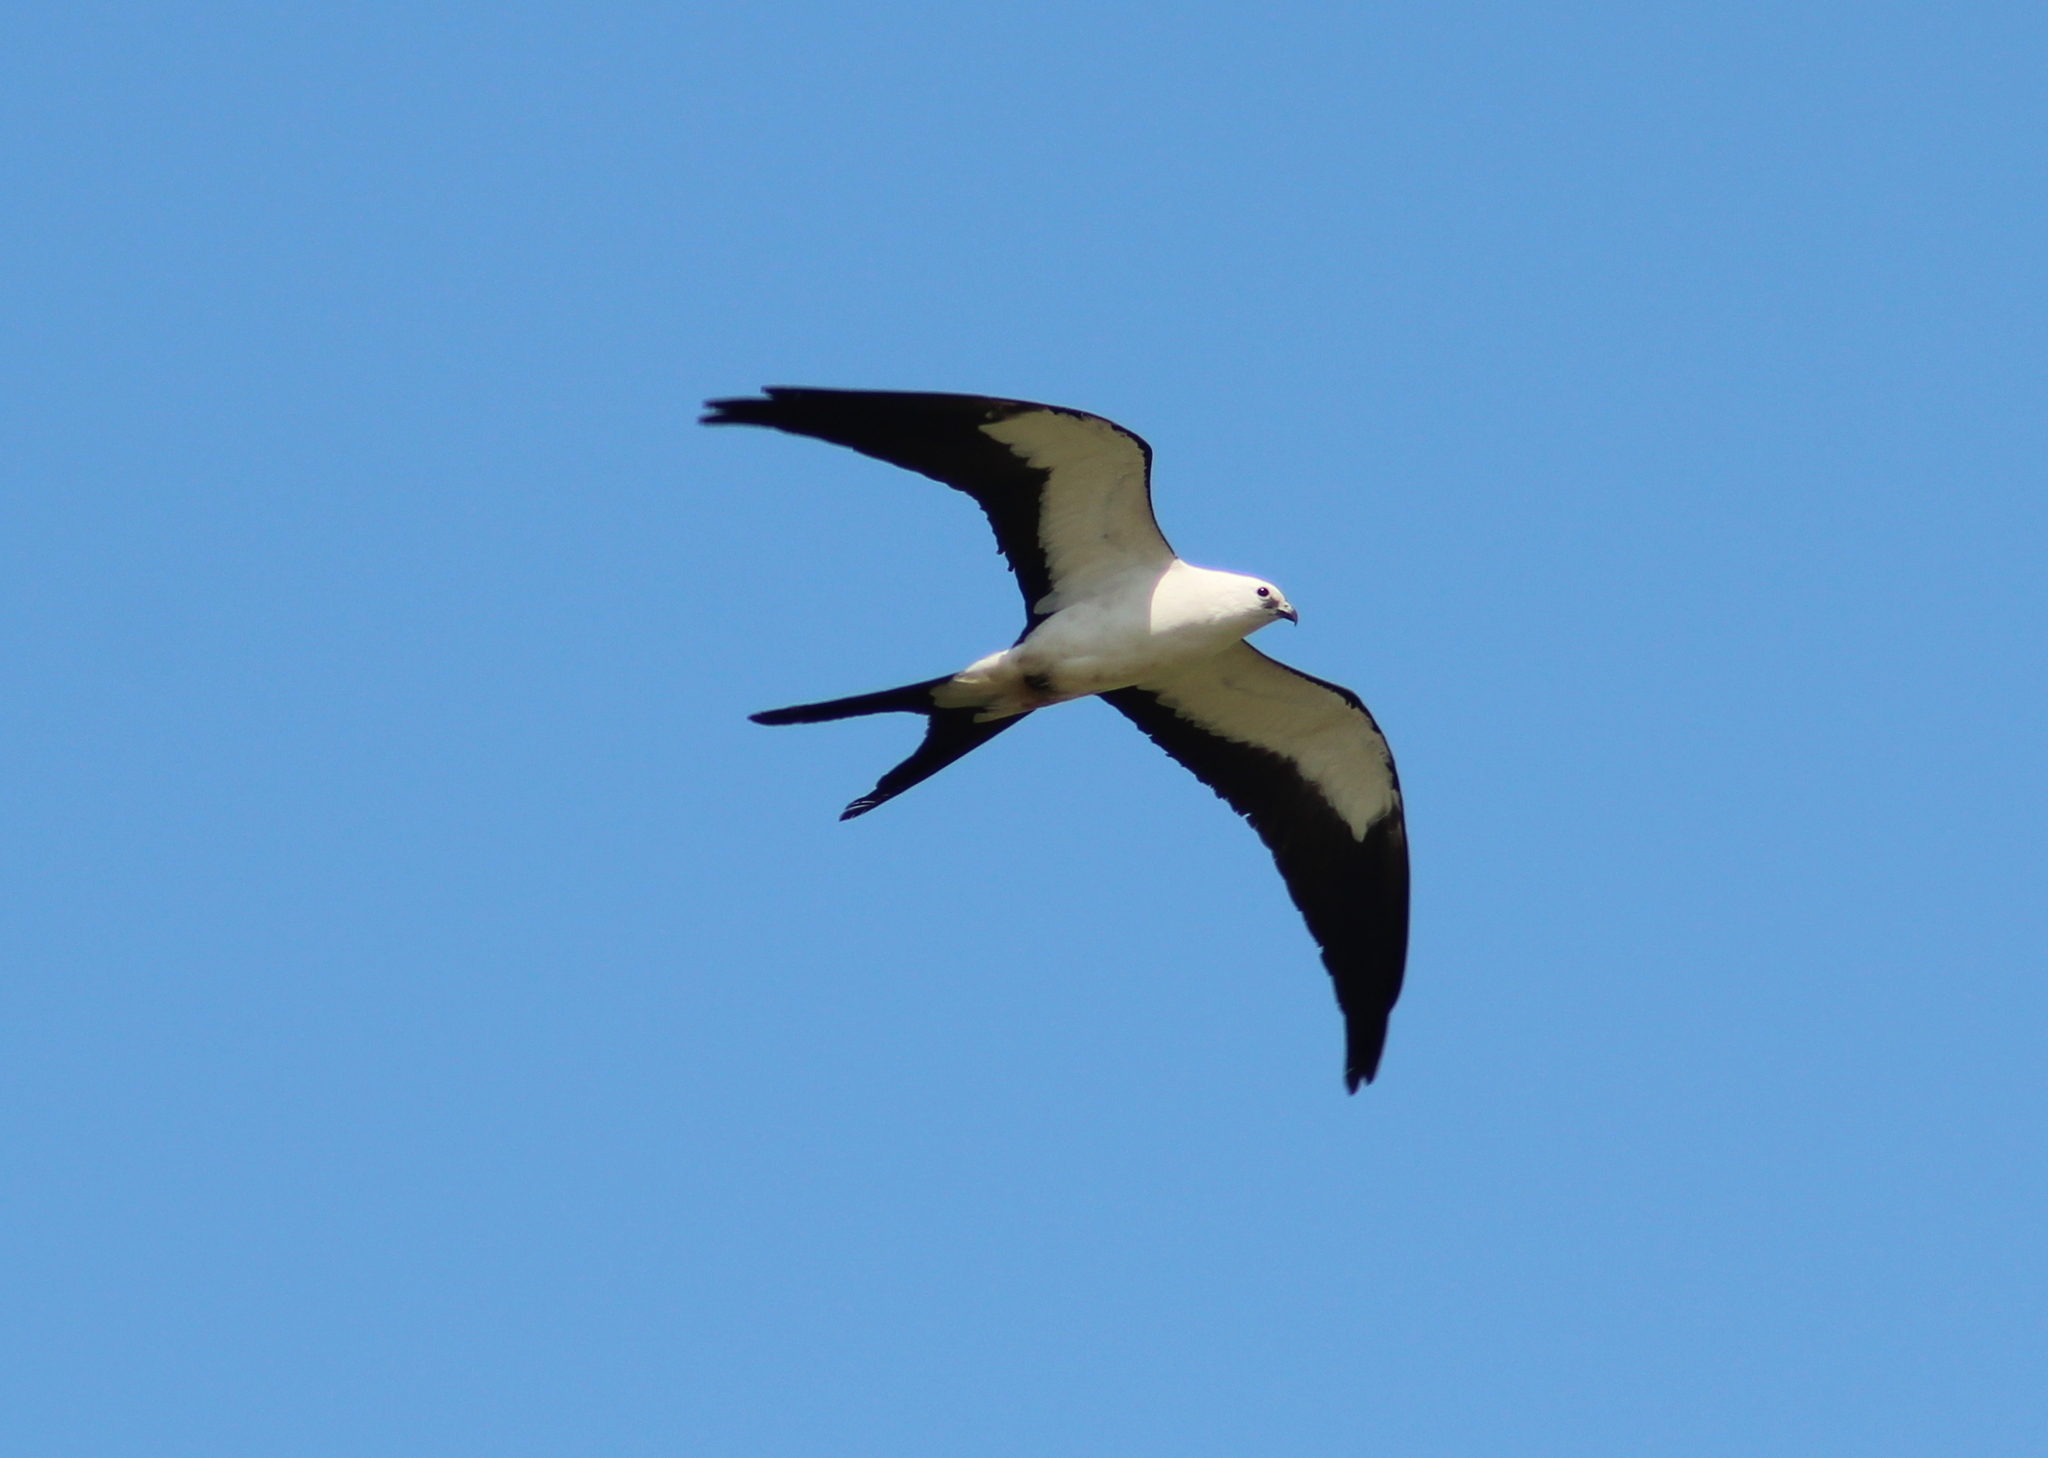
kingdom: Animalia
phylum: Chordata
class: Aves
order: Accipitriformes
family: Accipitridae
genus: Elanoides
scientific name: Elanoides forficatus
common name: Swallow-tailed kite
